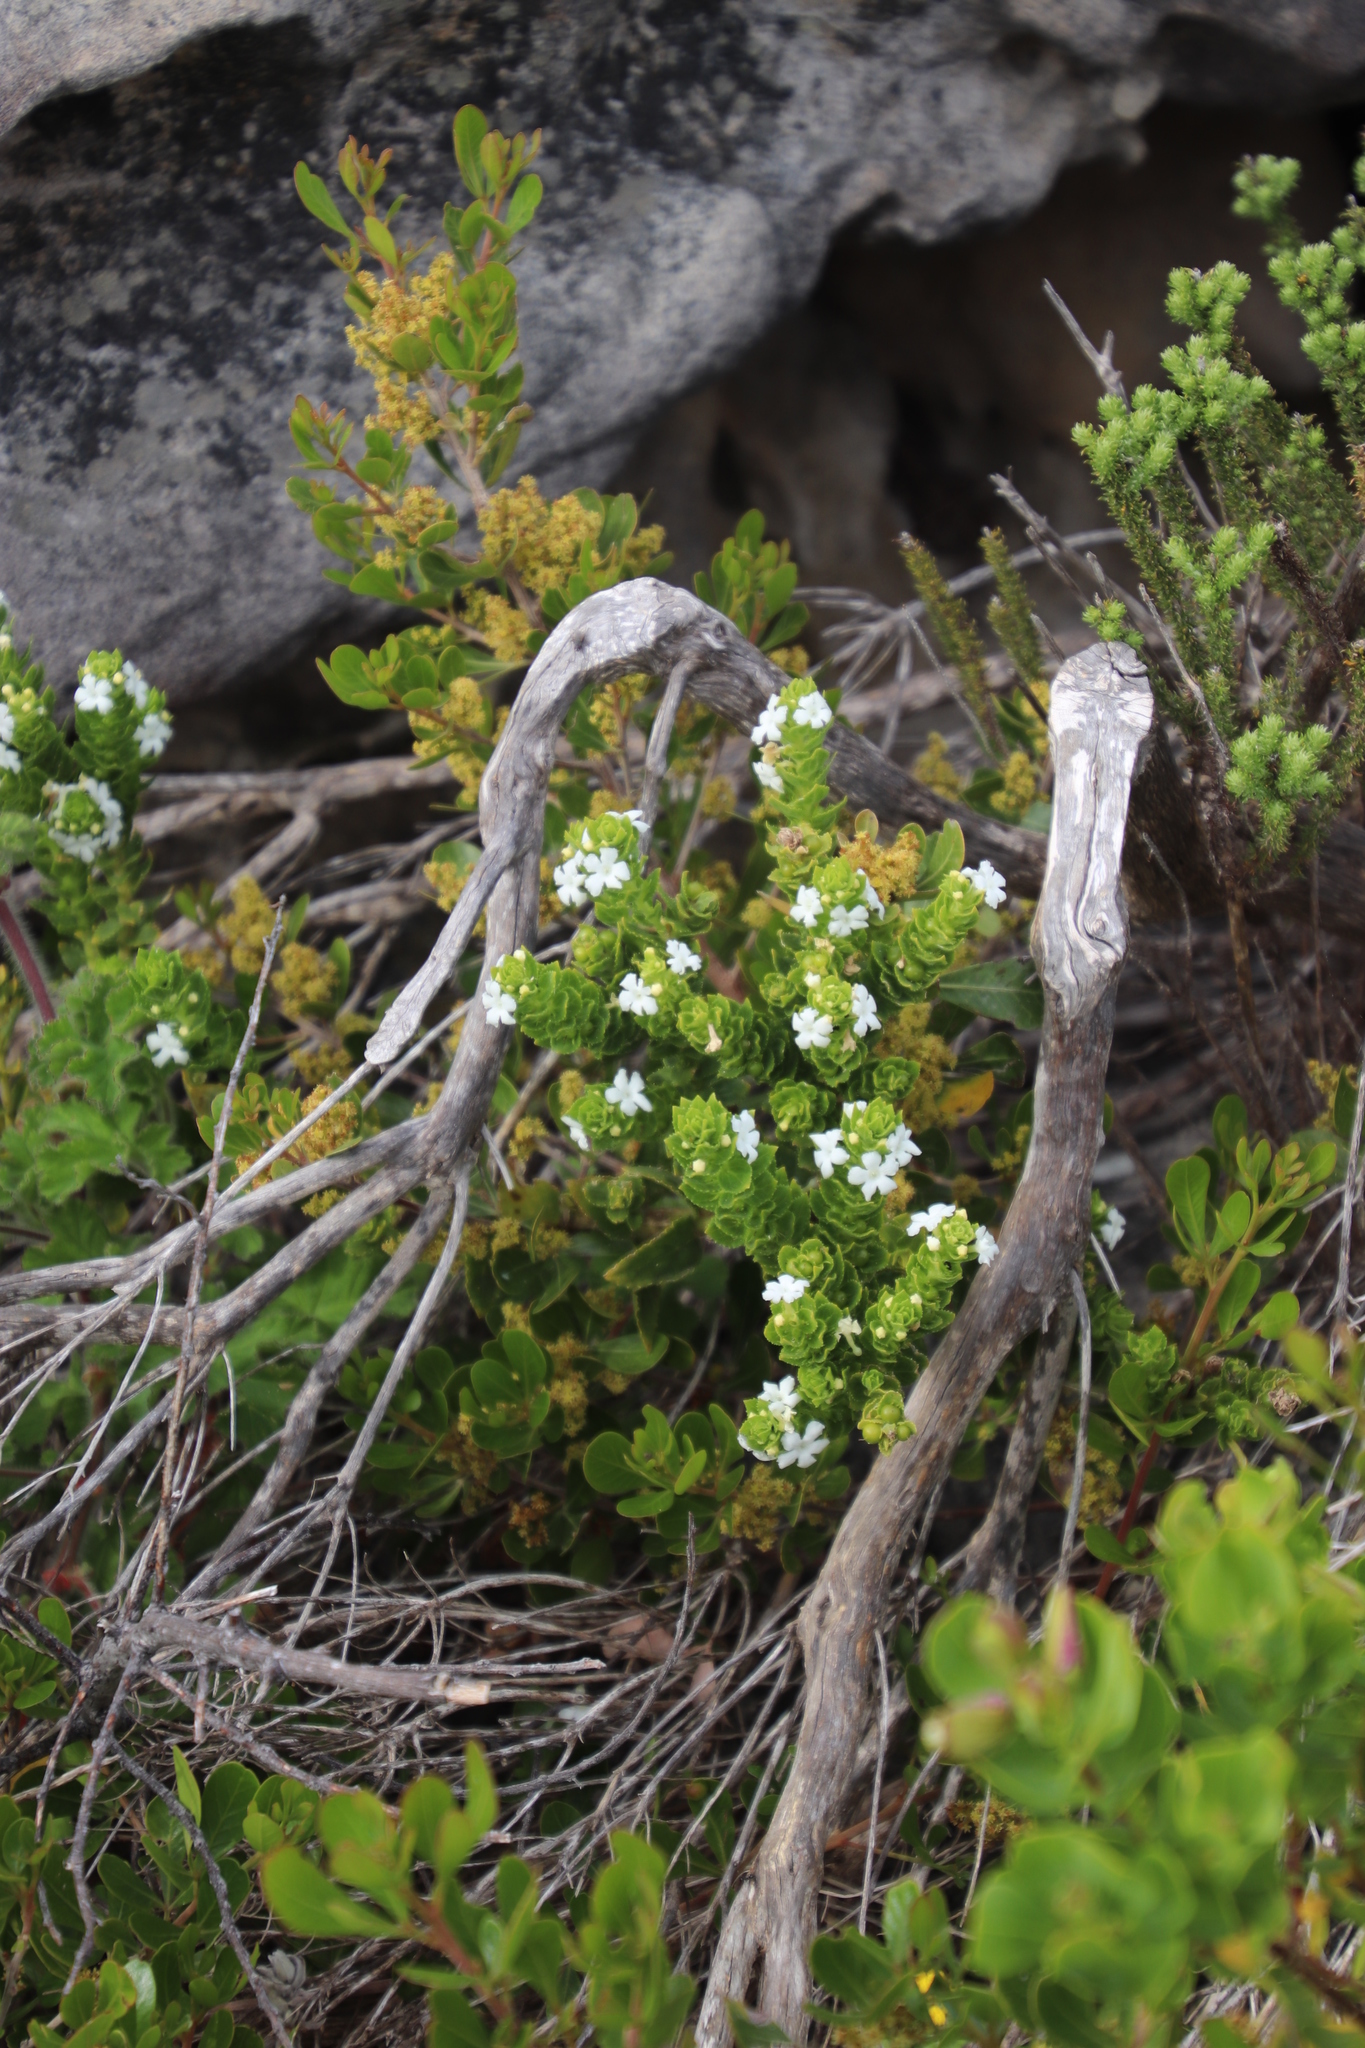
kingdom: Plantae
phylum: Tracheophyta
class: Magnoliopsida
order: Lamiales
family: Scrophulariaceae
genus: Oftia
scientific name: Oftia africana
